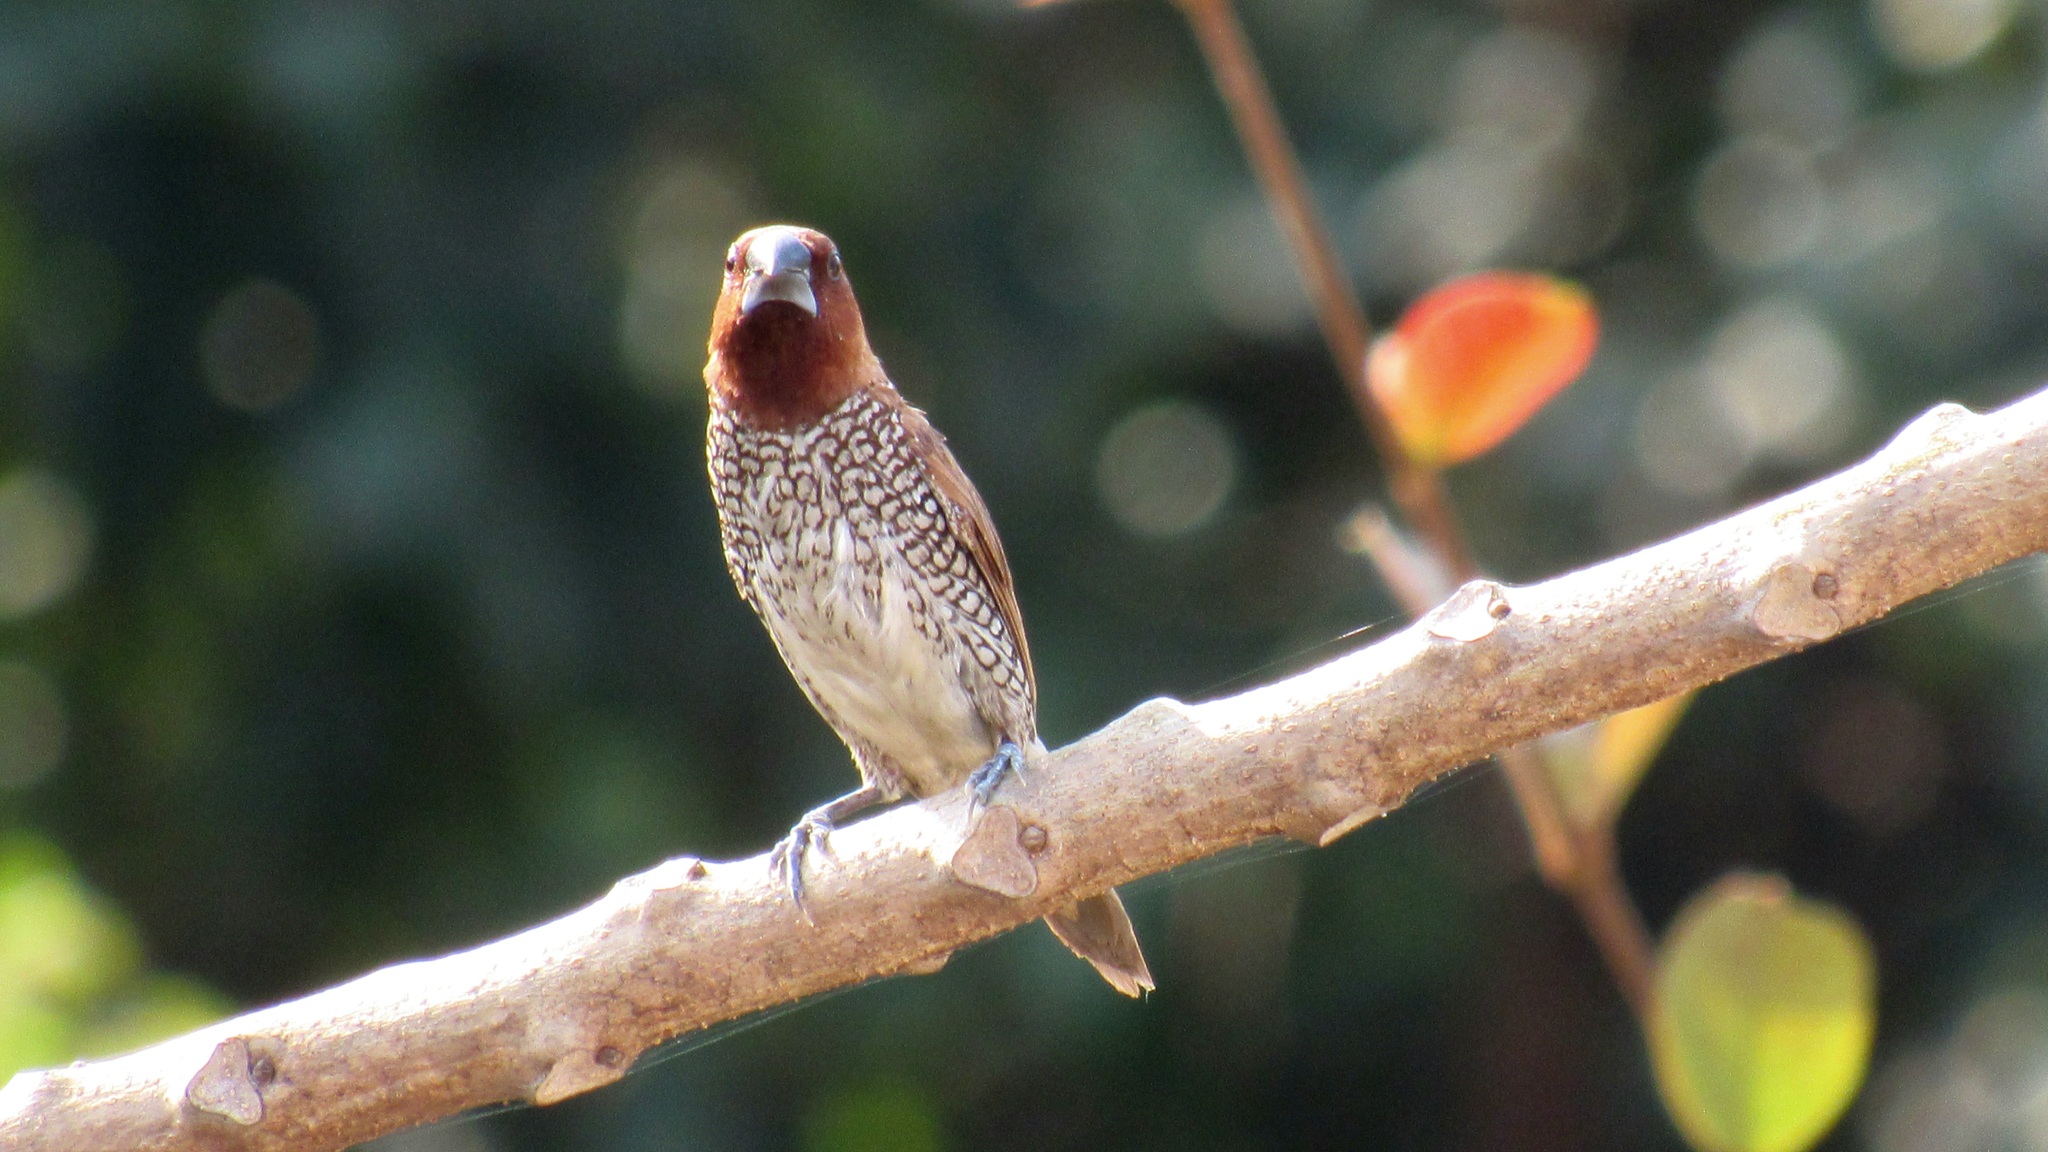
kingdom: Animalia
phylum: Chordata
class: Aves
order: Passeriformes
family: Estrildidae
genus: Lonchura
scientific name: Lonchura punctulata
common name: Scaly-breasted munia
